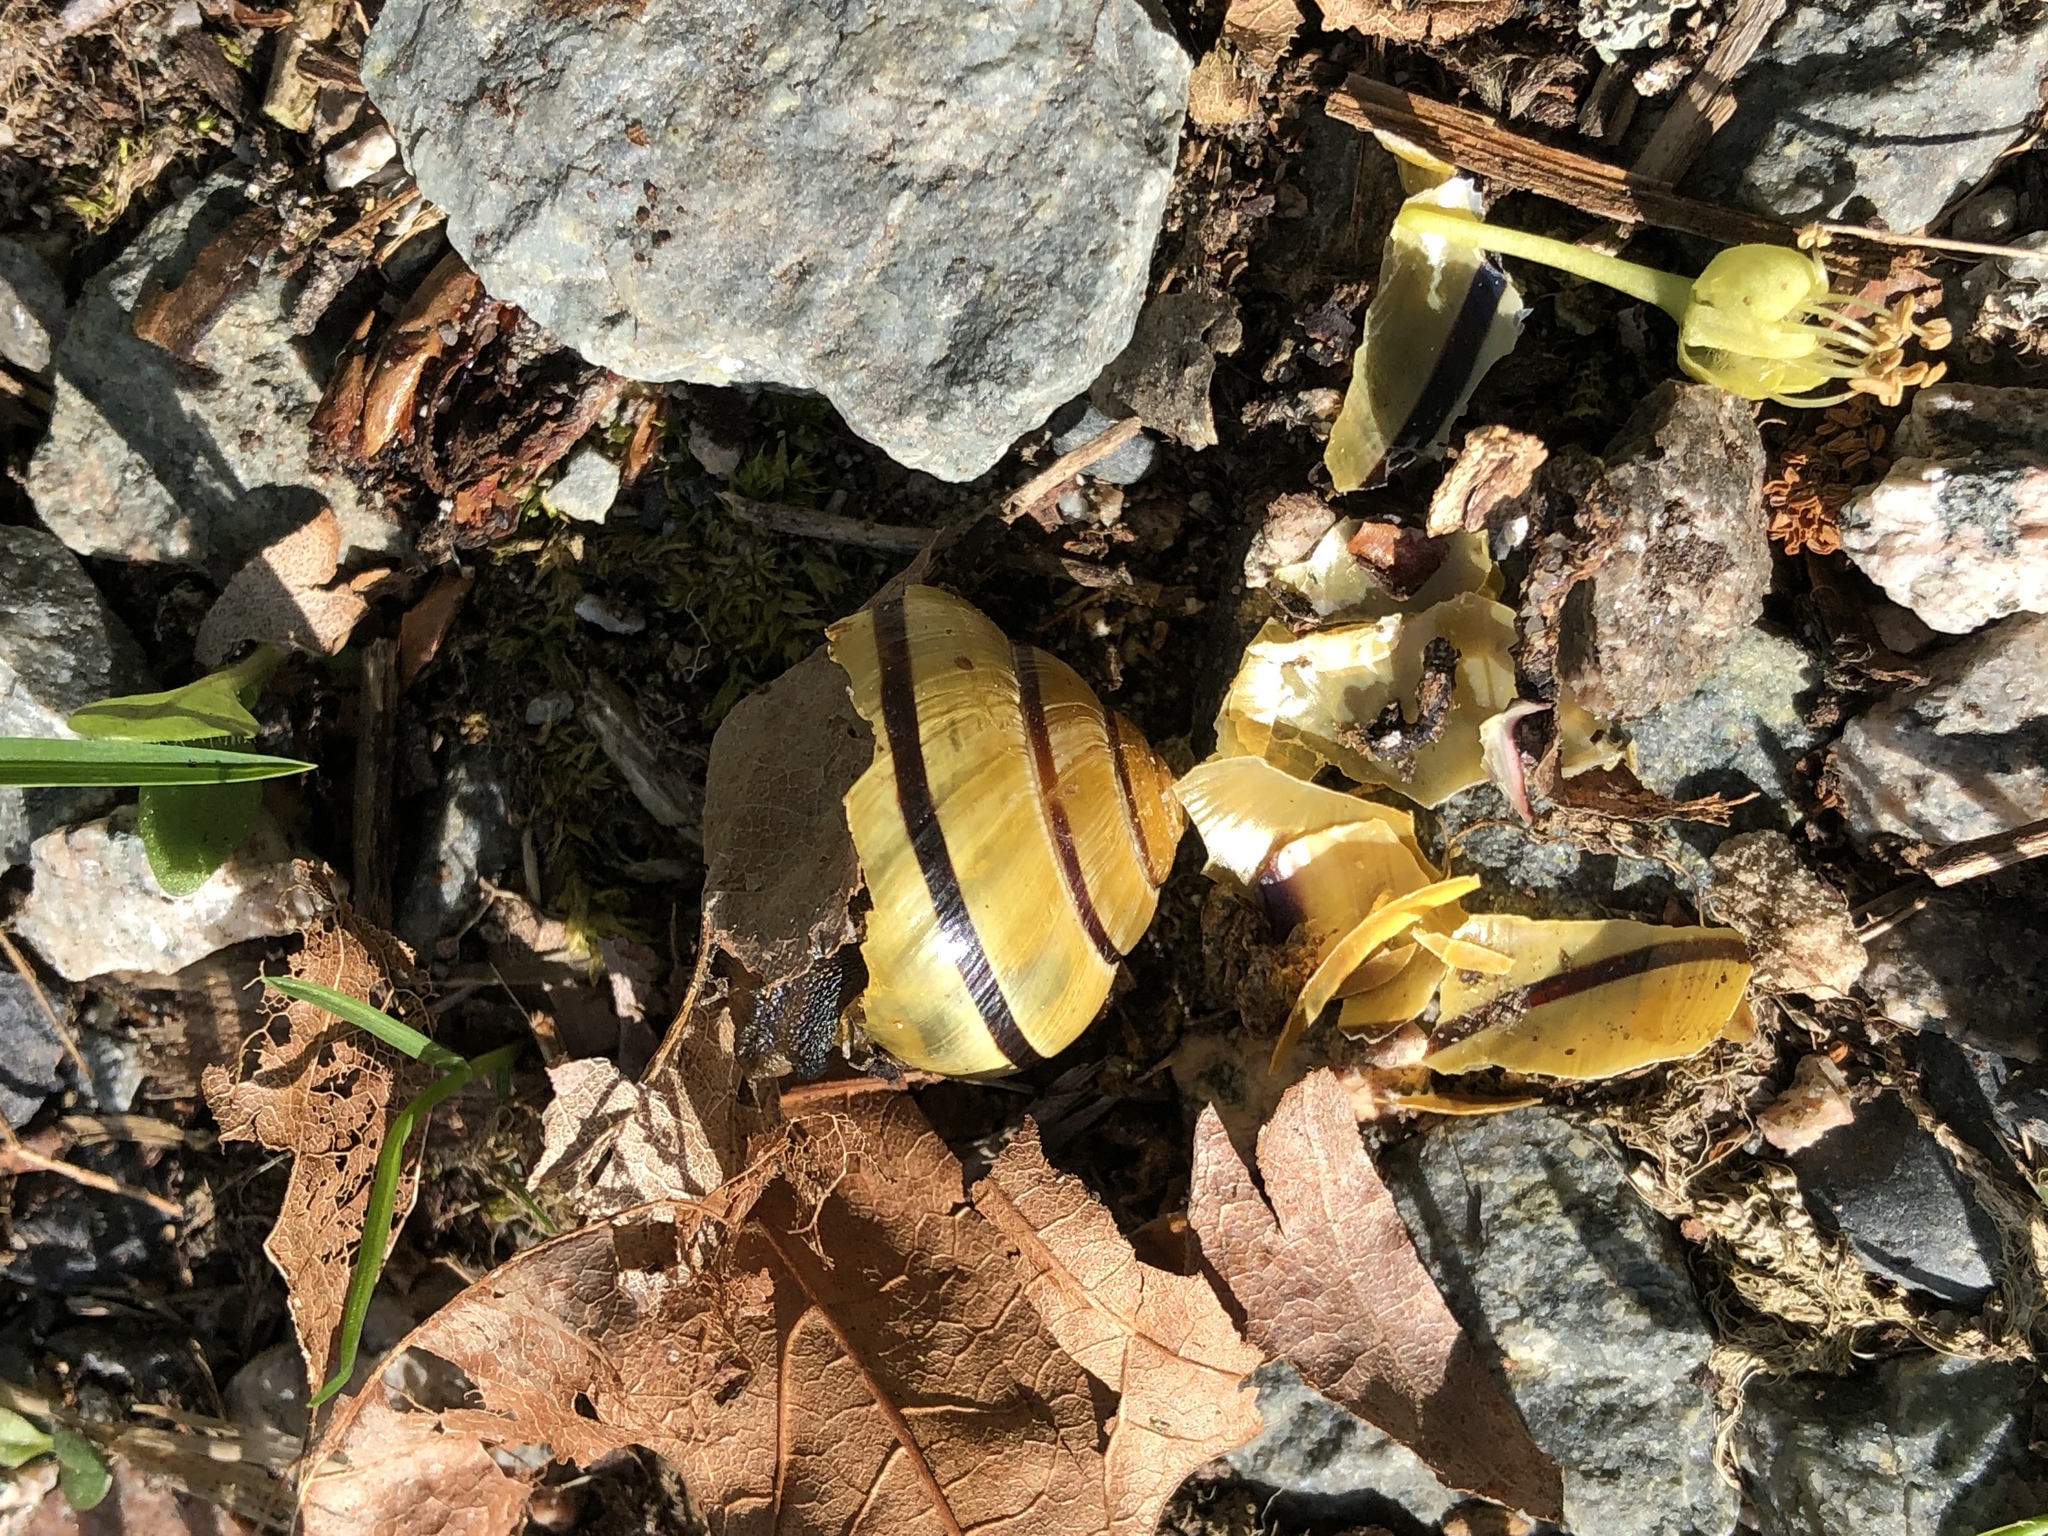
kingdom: Animalia
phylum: Mollusca
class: Gastropoda
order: Stylommatophora
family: Helicidae
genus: Cepaea
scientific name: Cepaea nemoralis
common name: Grovesnail
